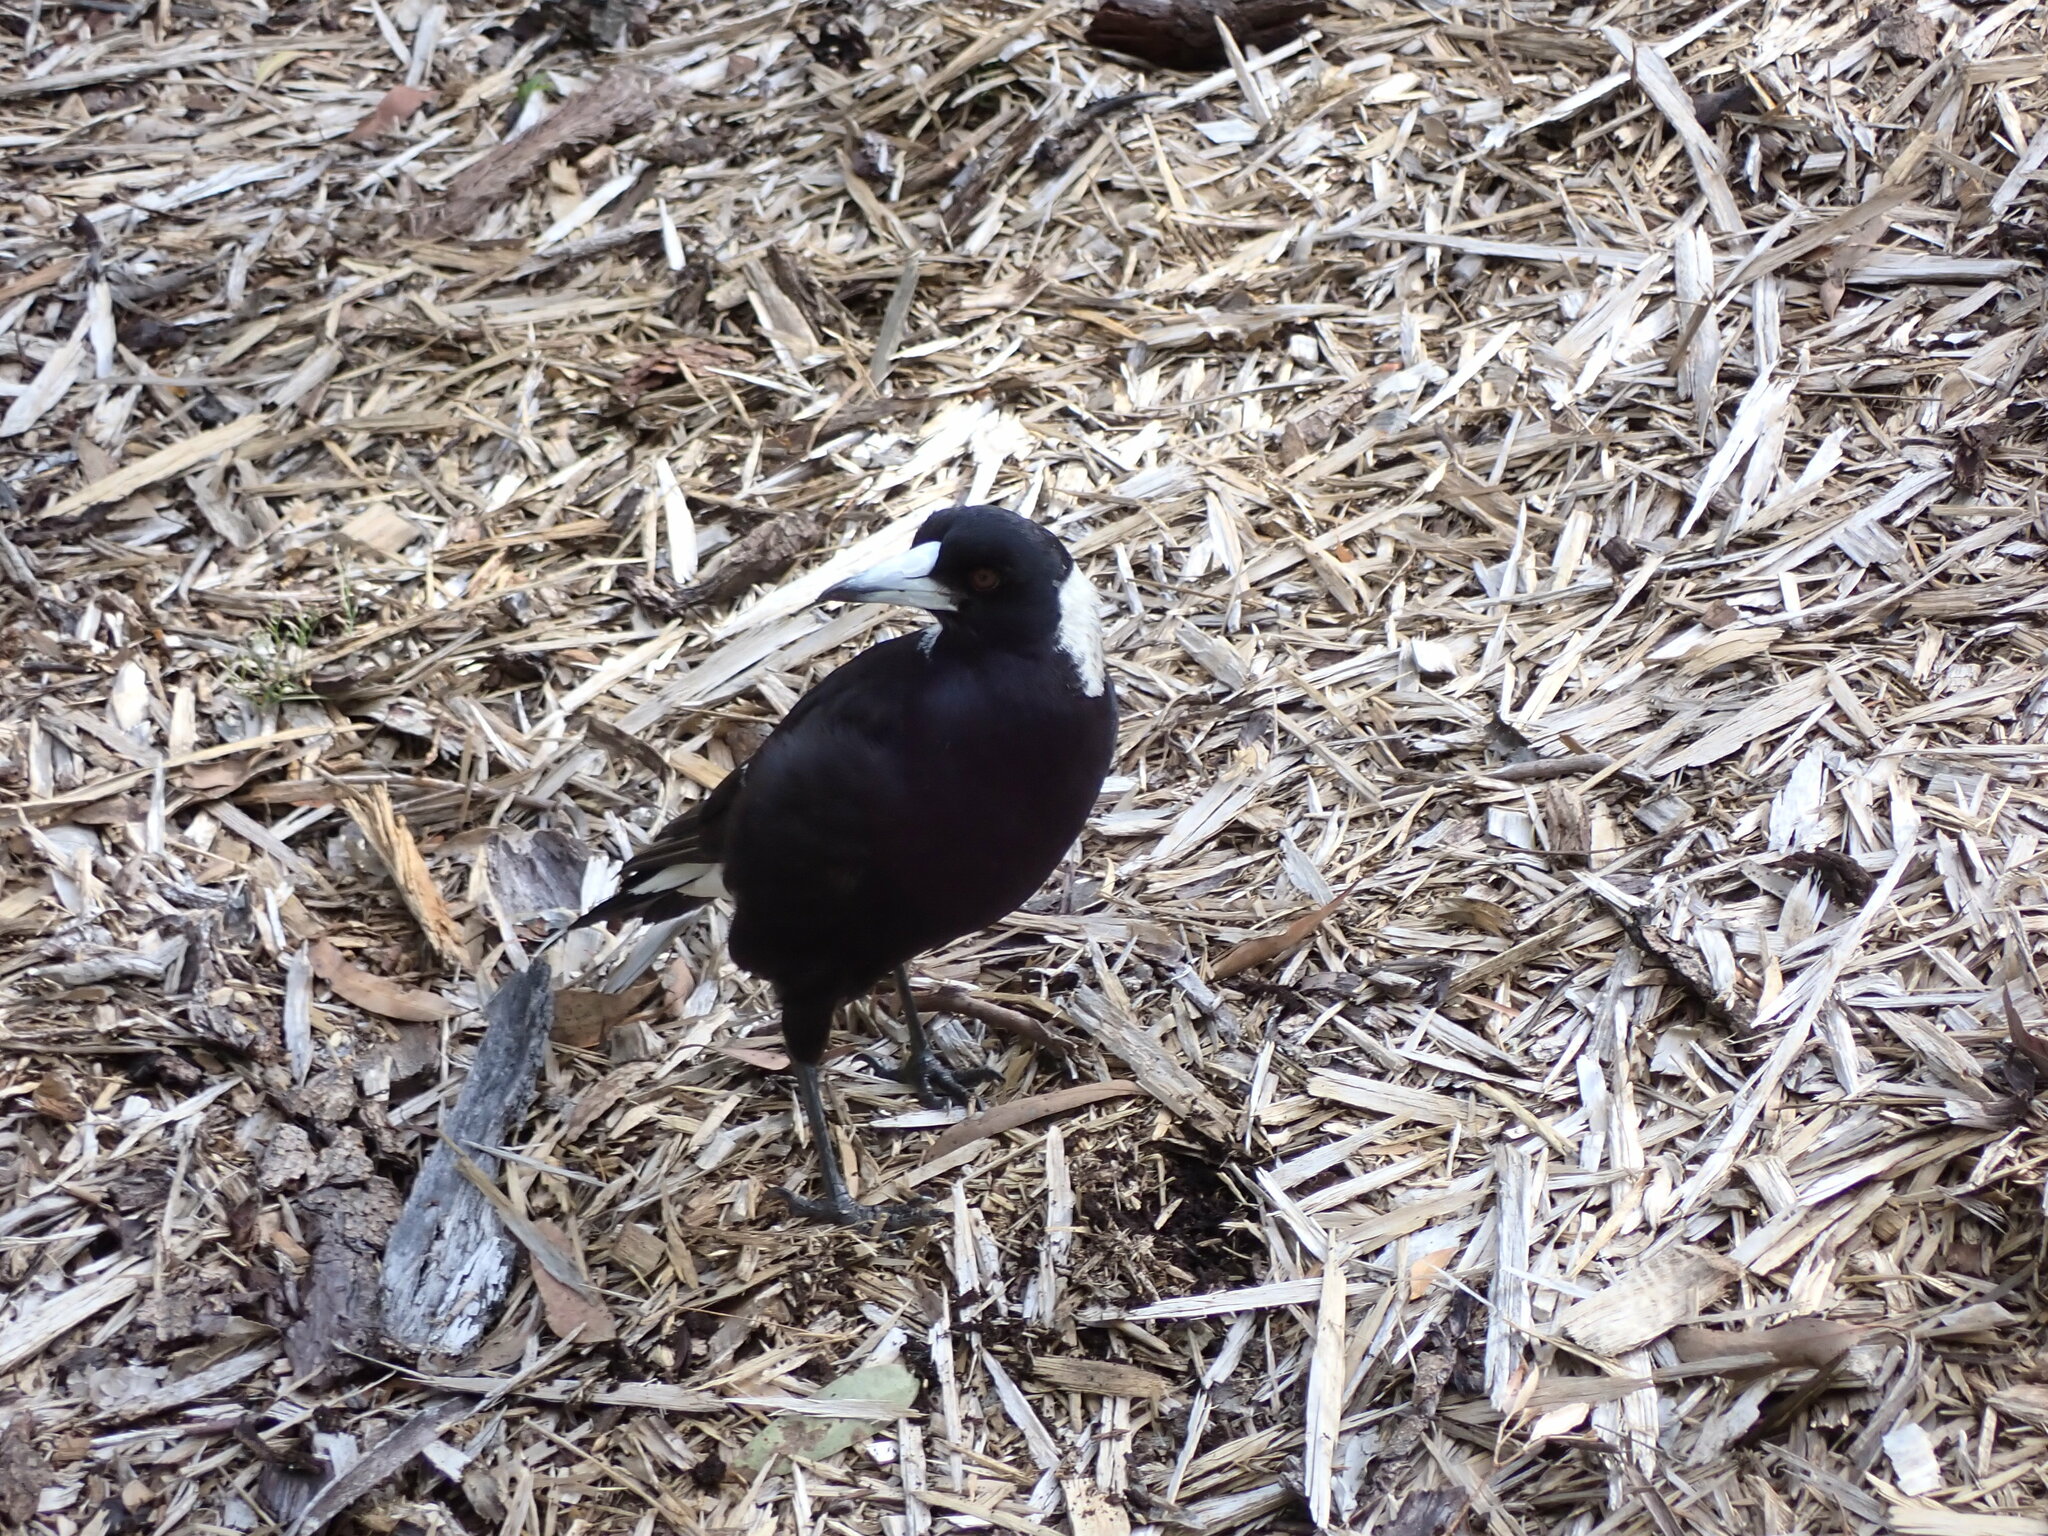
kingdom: Animalia
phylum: Chordata
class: Aves
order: Passeriformes
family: Cracticidae
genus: Gymnorhina
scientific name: Gymnorhina tibicen
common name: Australian magpie
